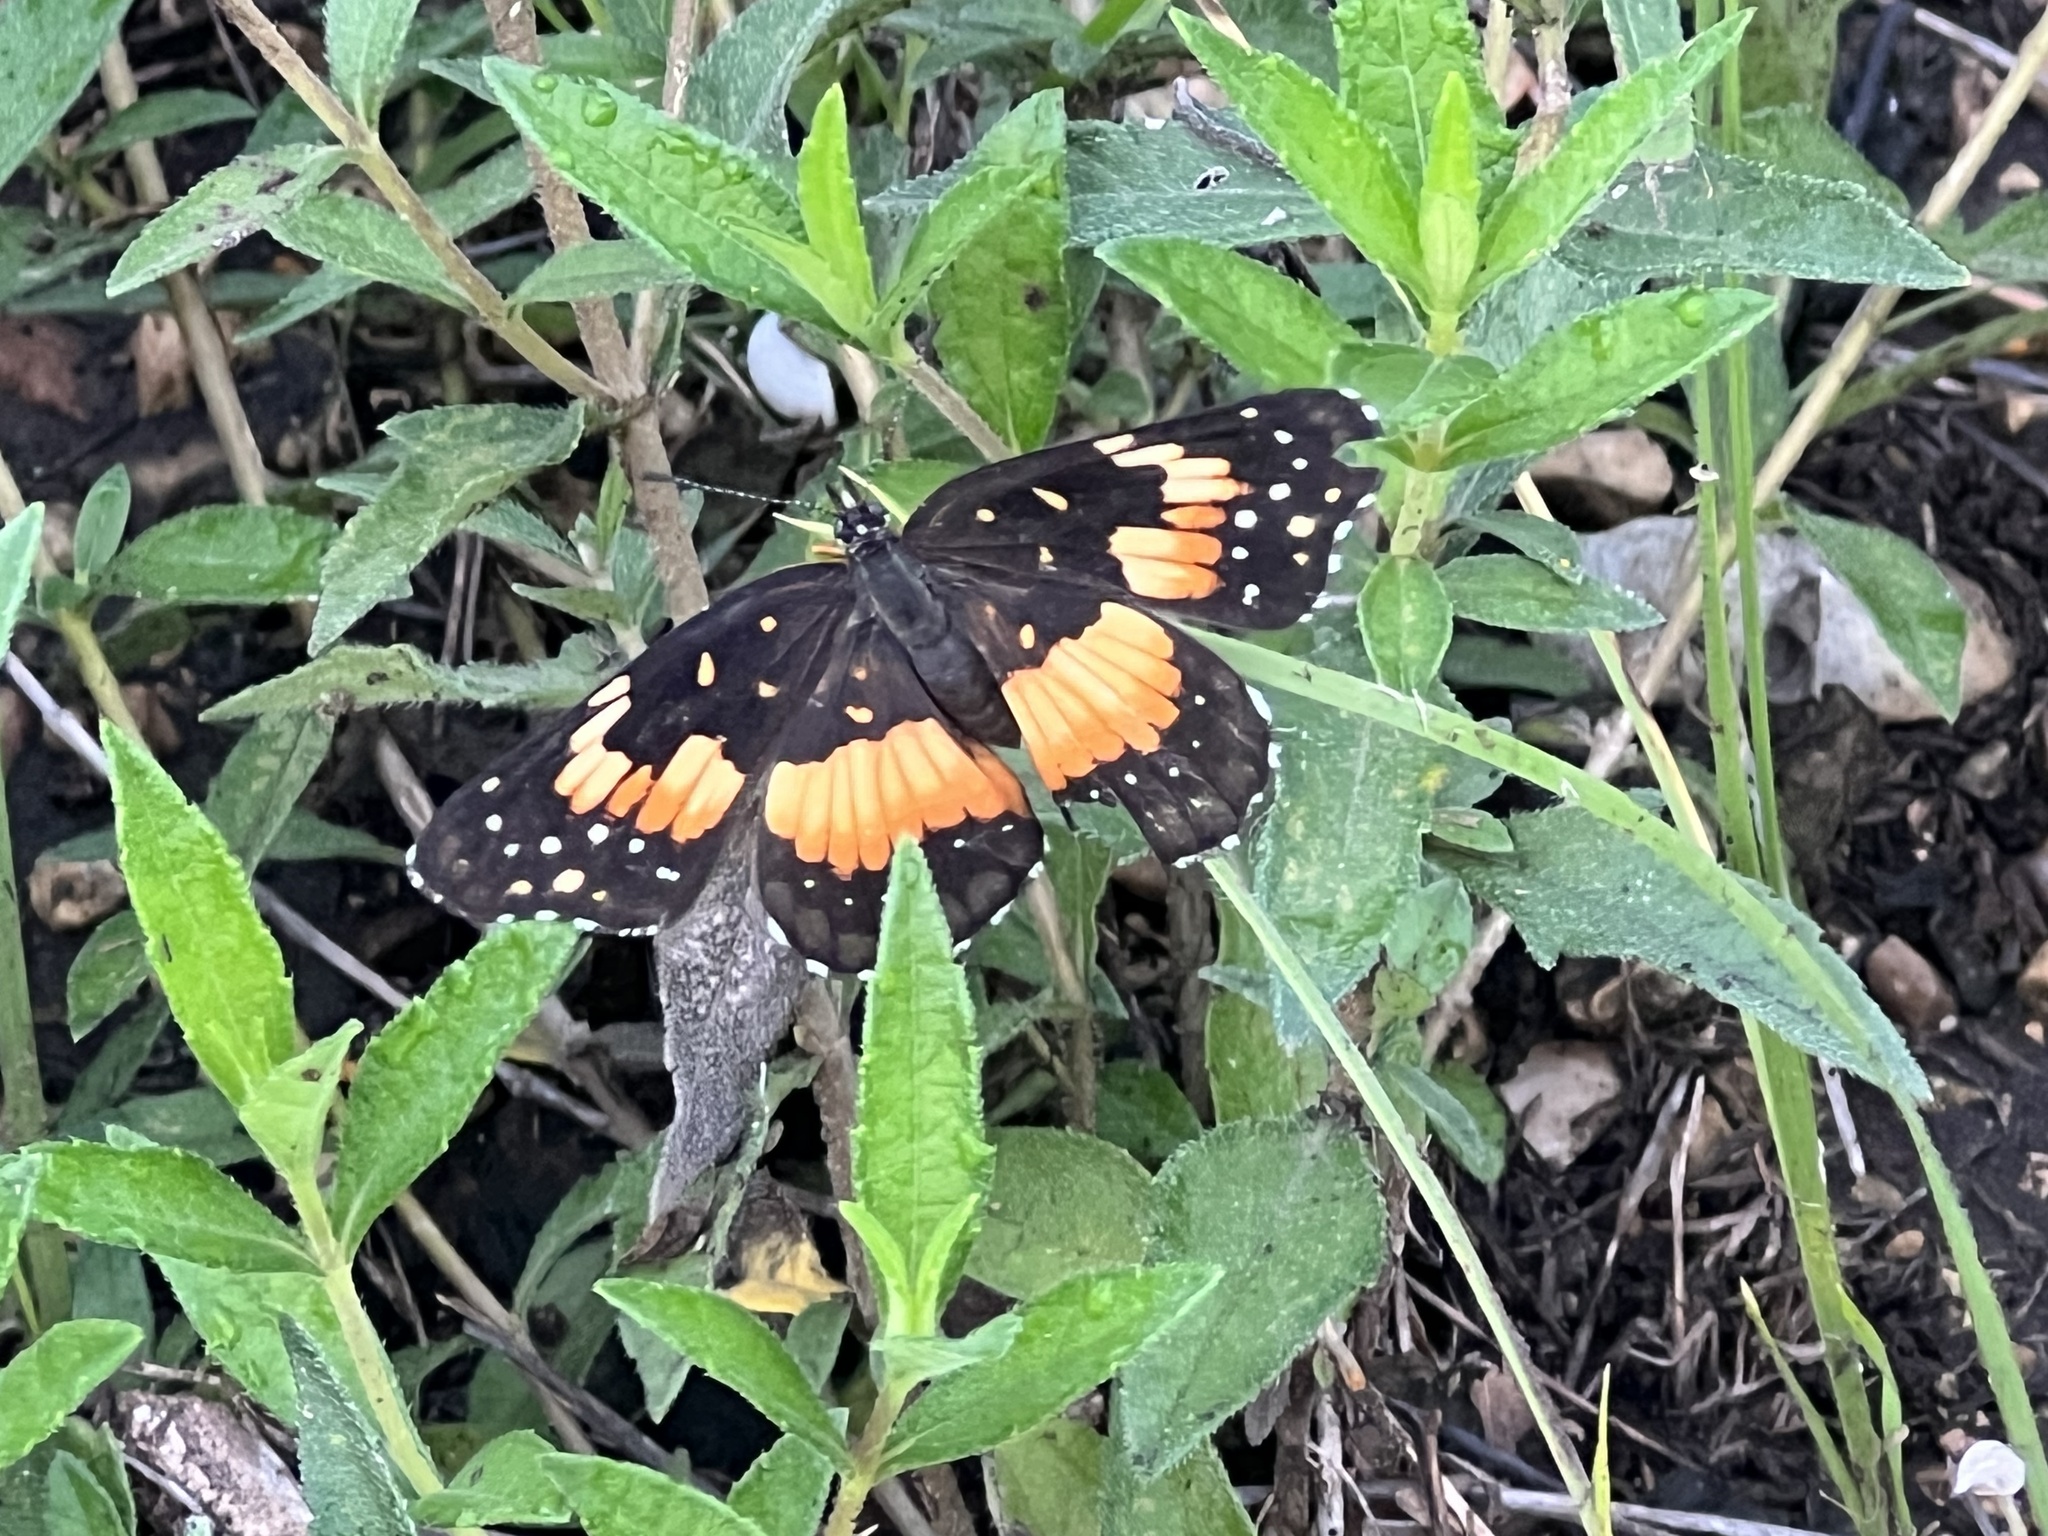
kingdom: Animalia
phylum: Arthropoda
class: Insecta
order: Lepidoptera
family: Nymphalidae
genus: Chlosyne
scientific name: Chlosyne lacinia
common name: Bordered patch
